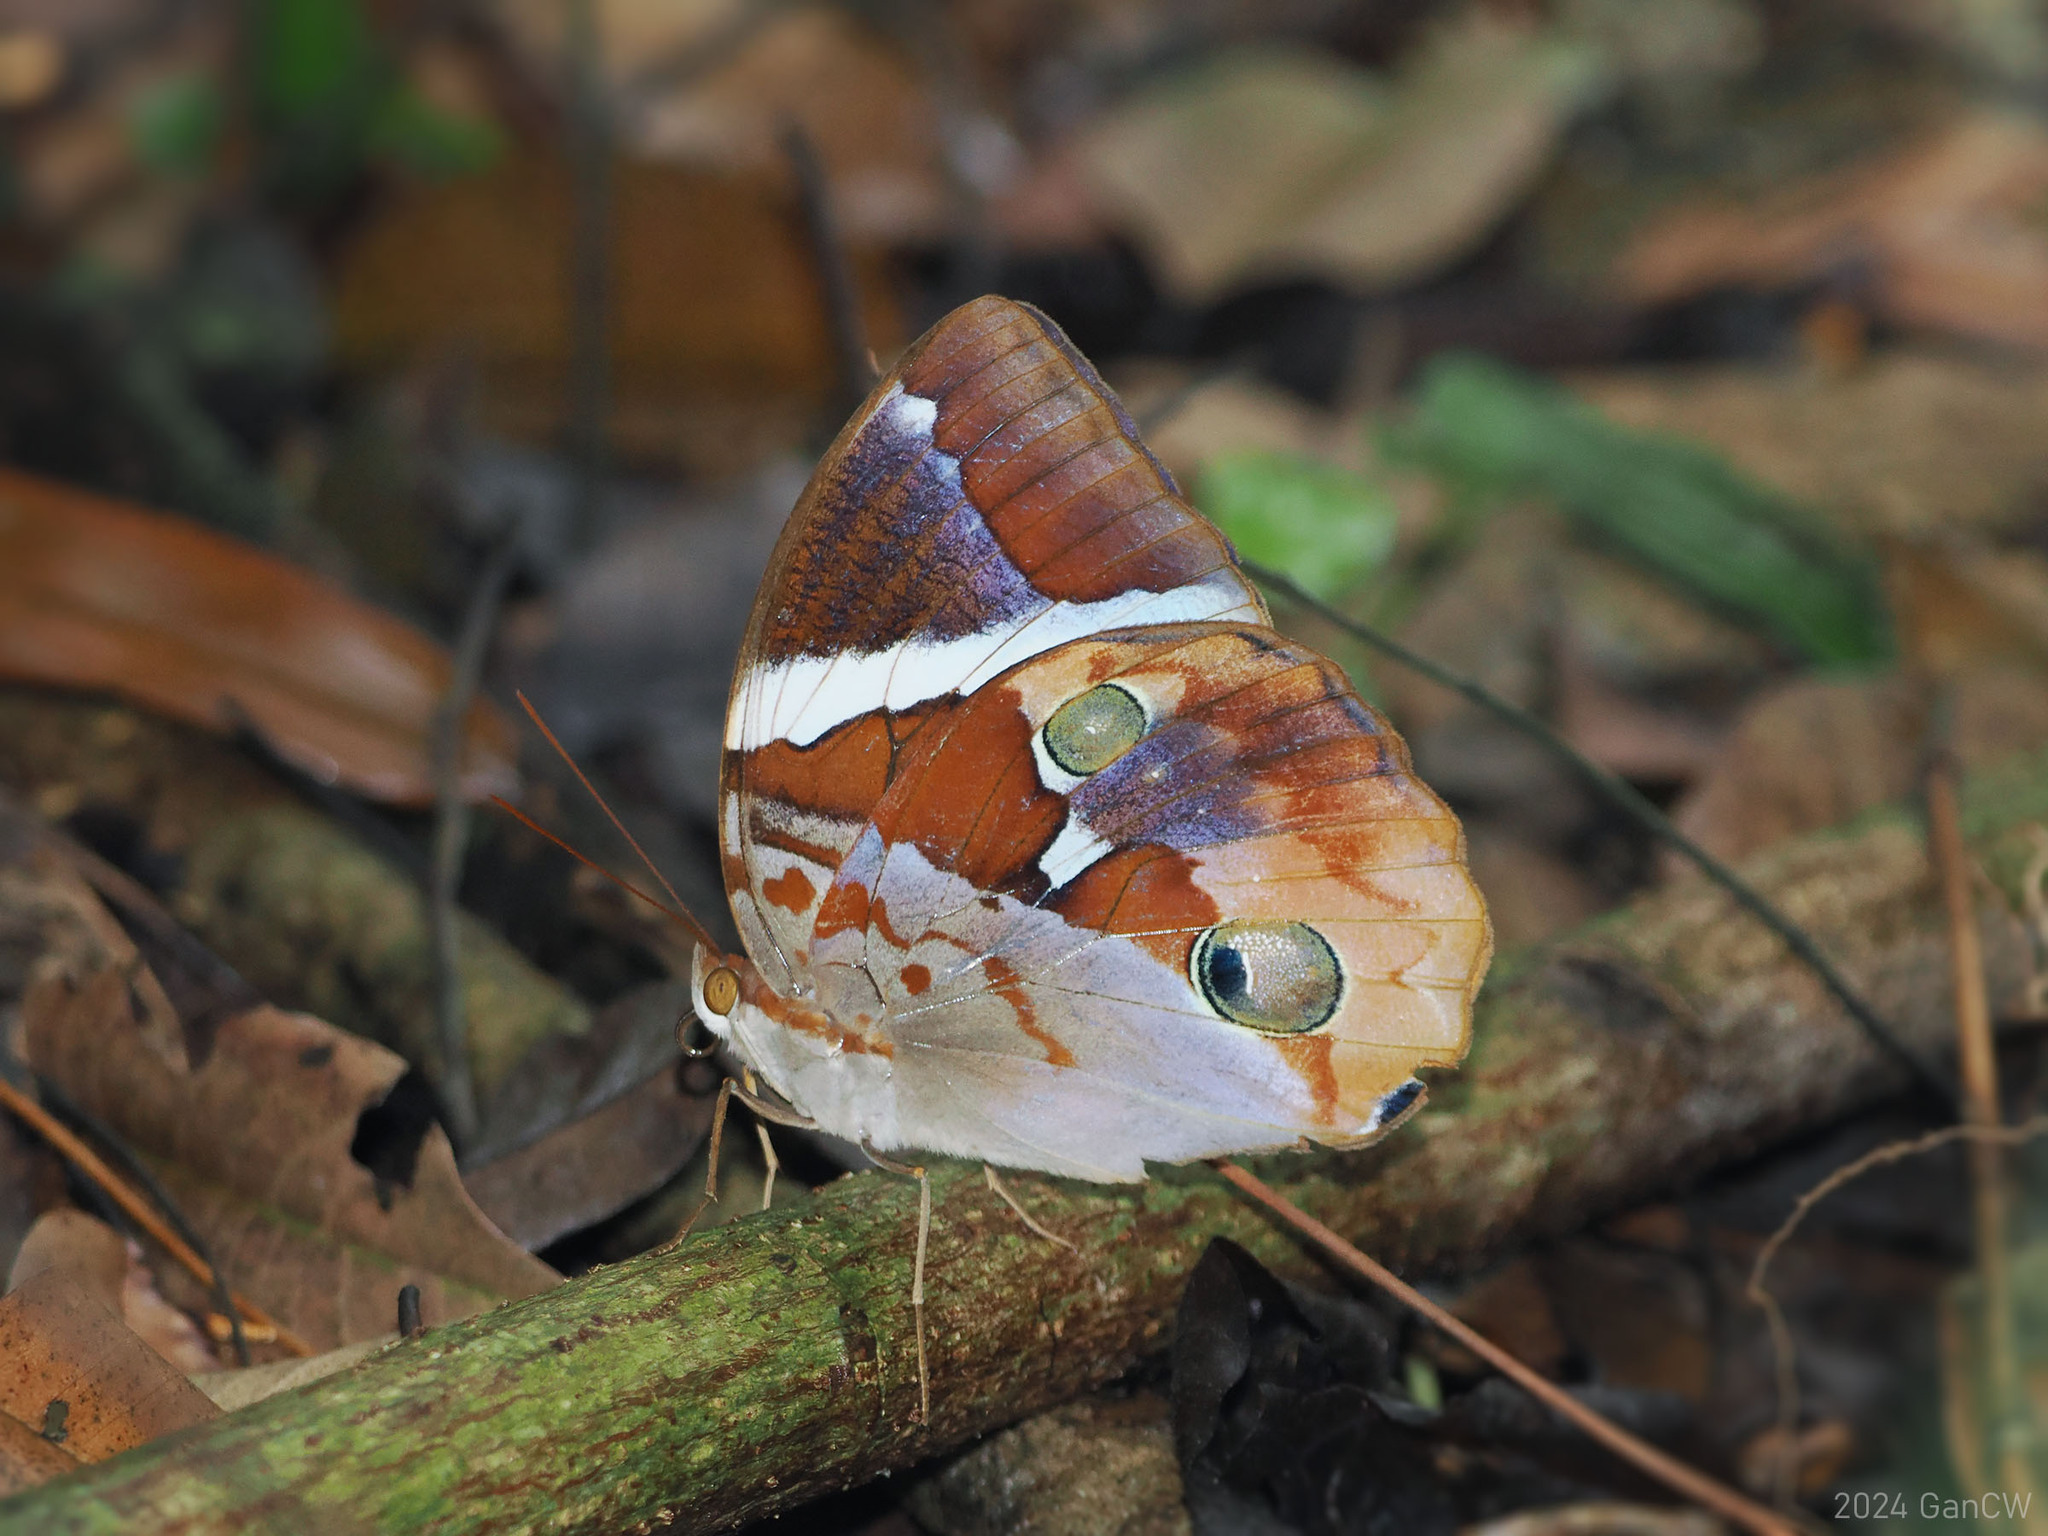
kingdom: Animalia
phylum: Arthropoda
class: Insecta
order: Lepidoptera
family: Nymphalidae
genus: Thauria
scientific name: Thauria aliris
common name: Tufted jungle king
